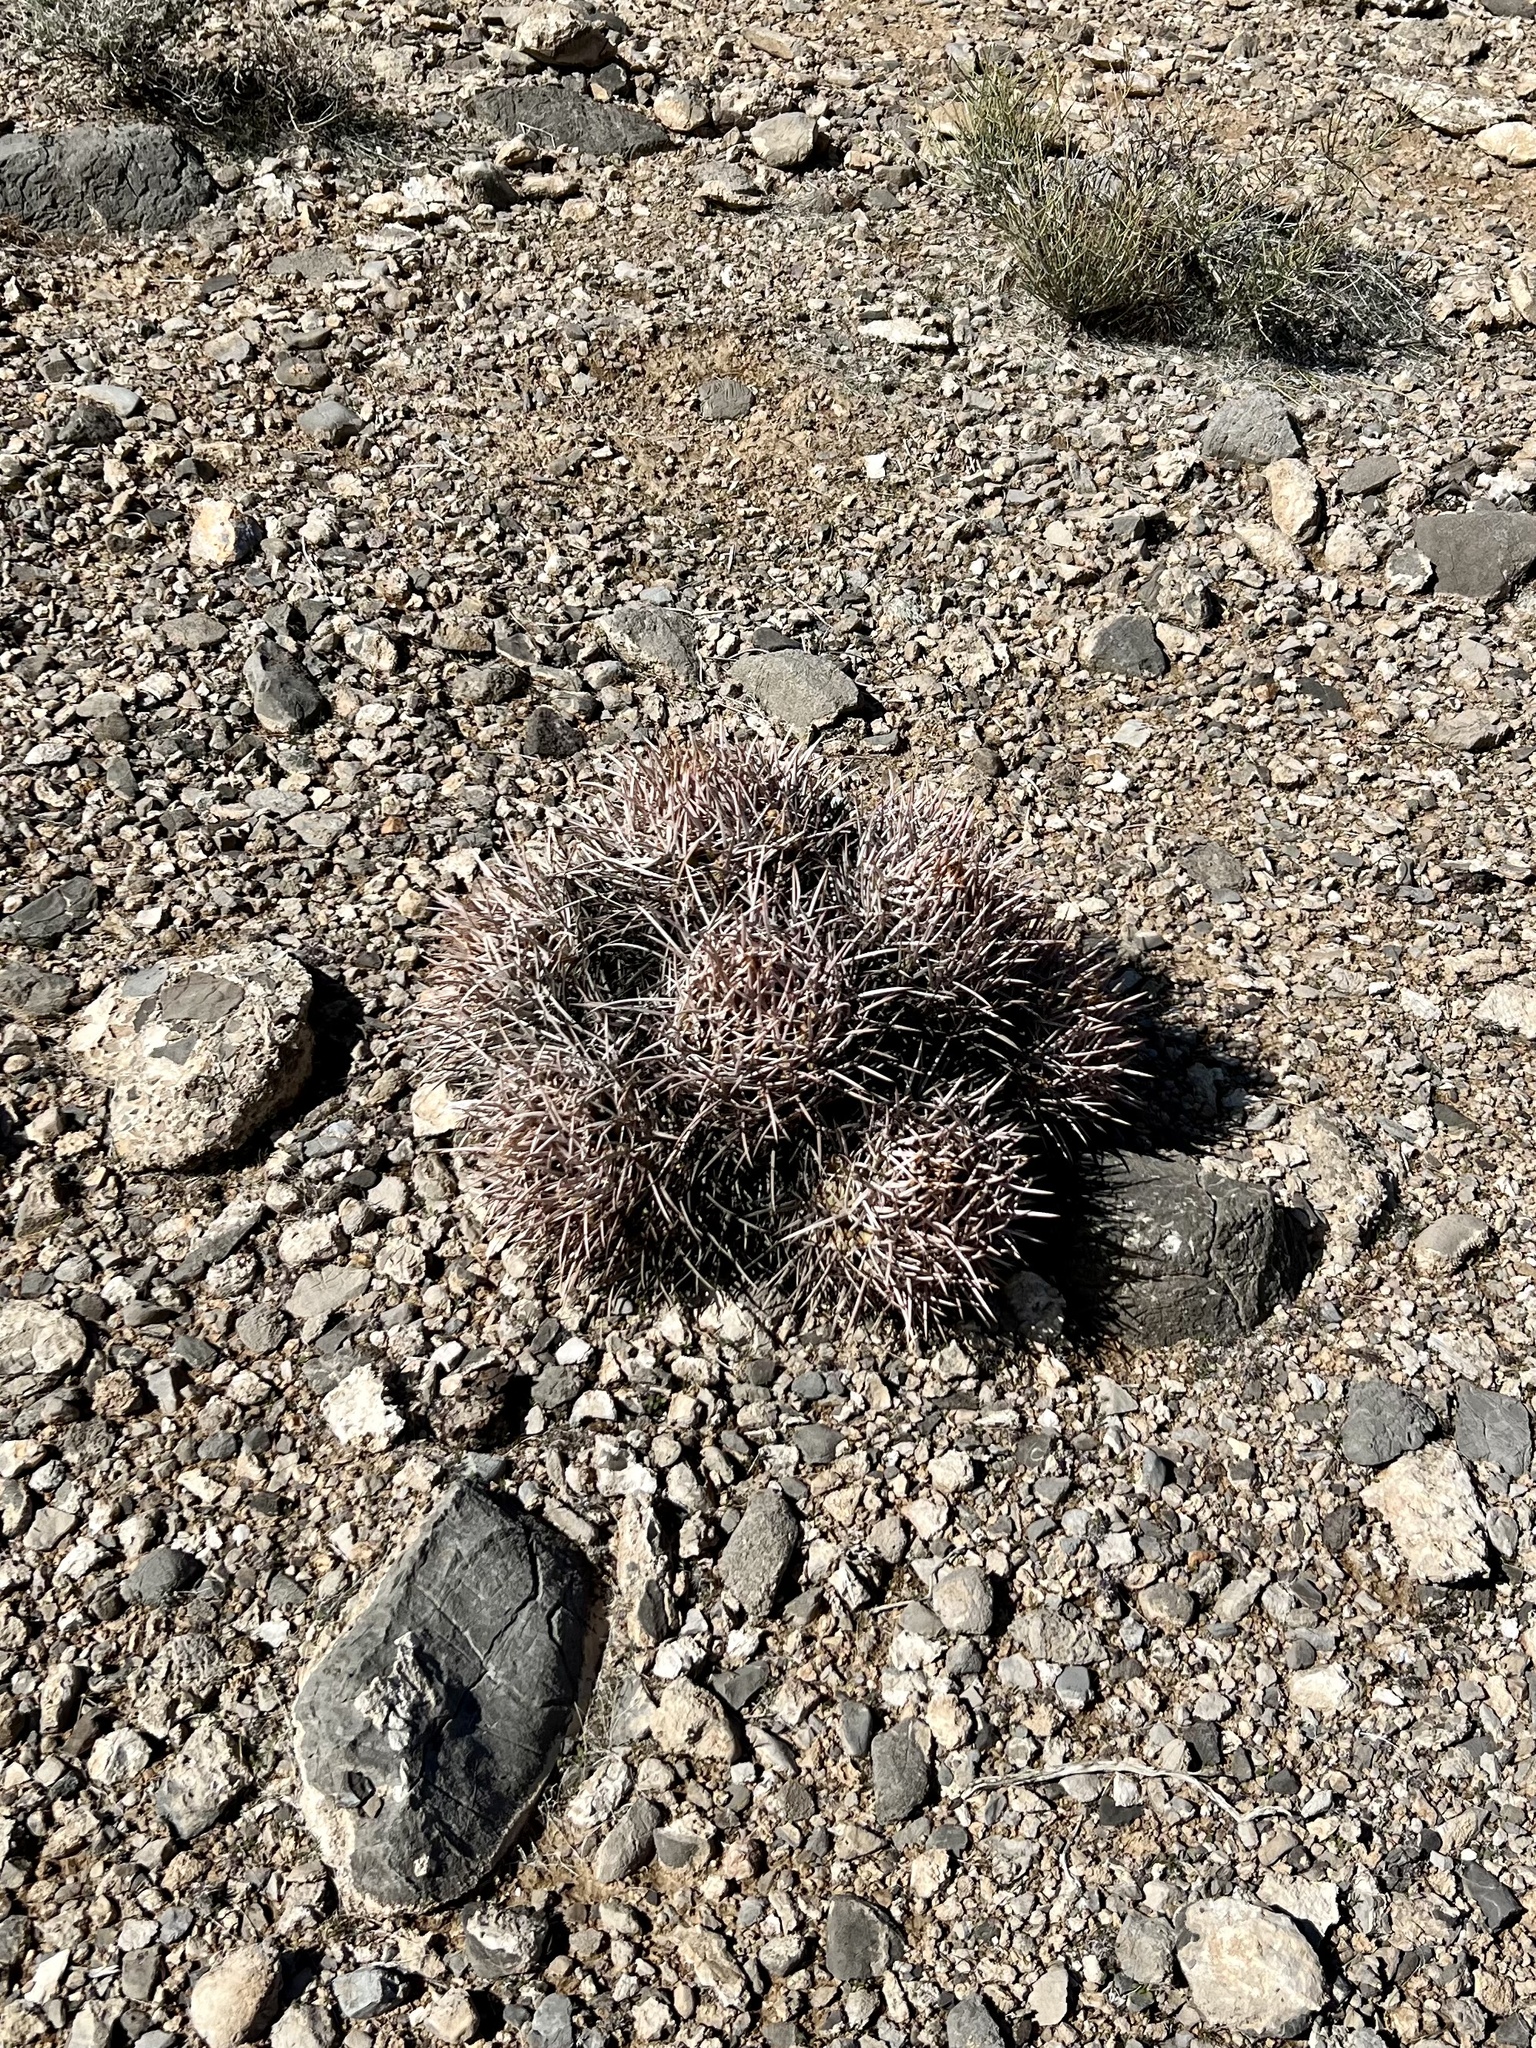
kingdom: Plantae
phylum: Tracheophyta
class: Magnoliopsida
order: Caryophyllales
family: Cactaceae
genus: Echinocactus
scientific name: Echinocactus polycephalus
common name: Cottontop cactus
